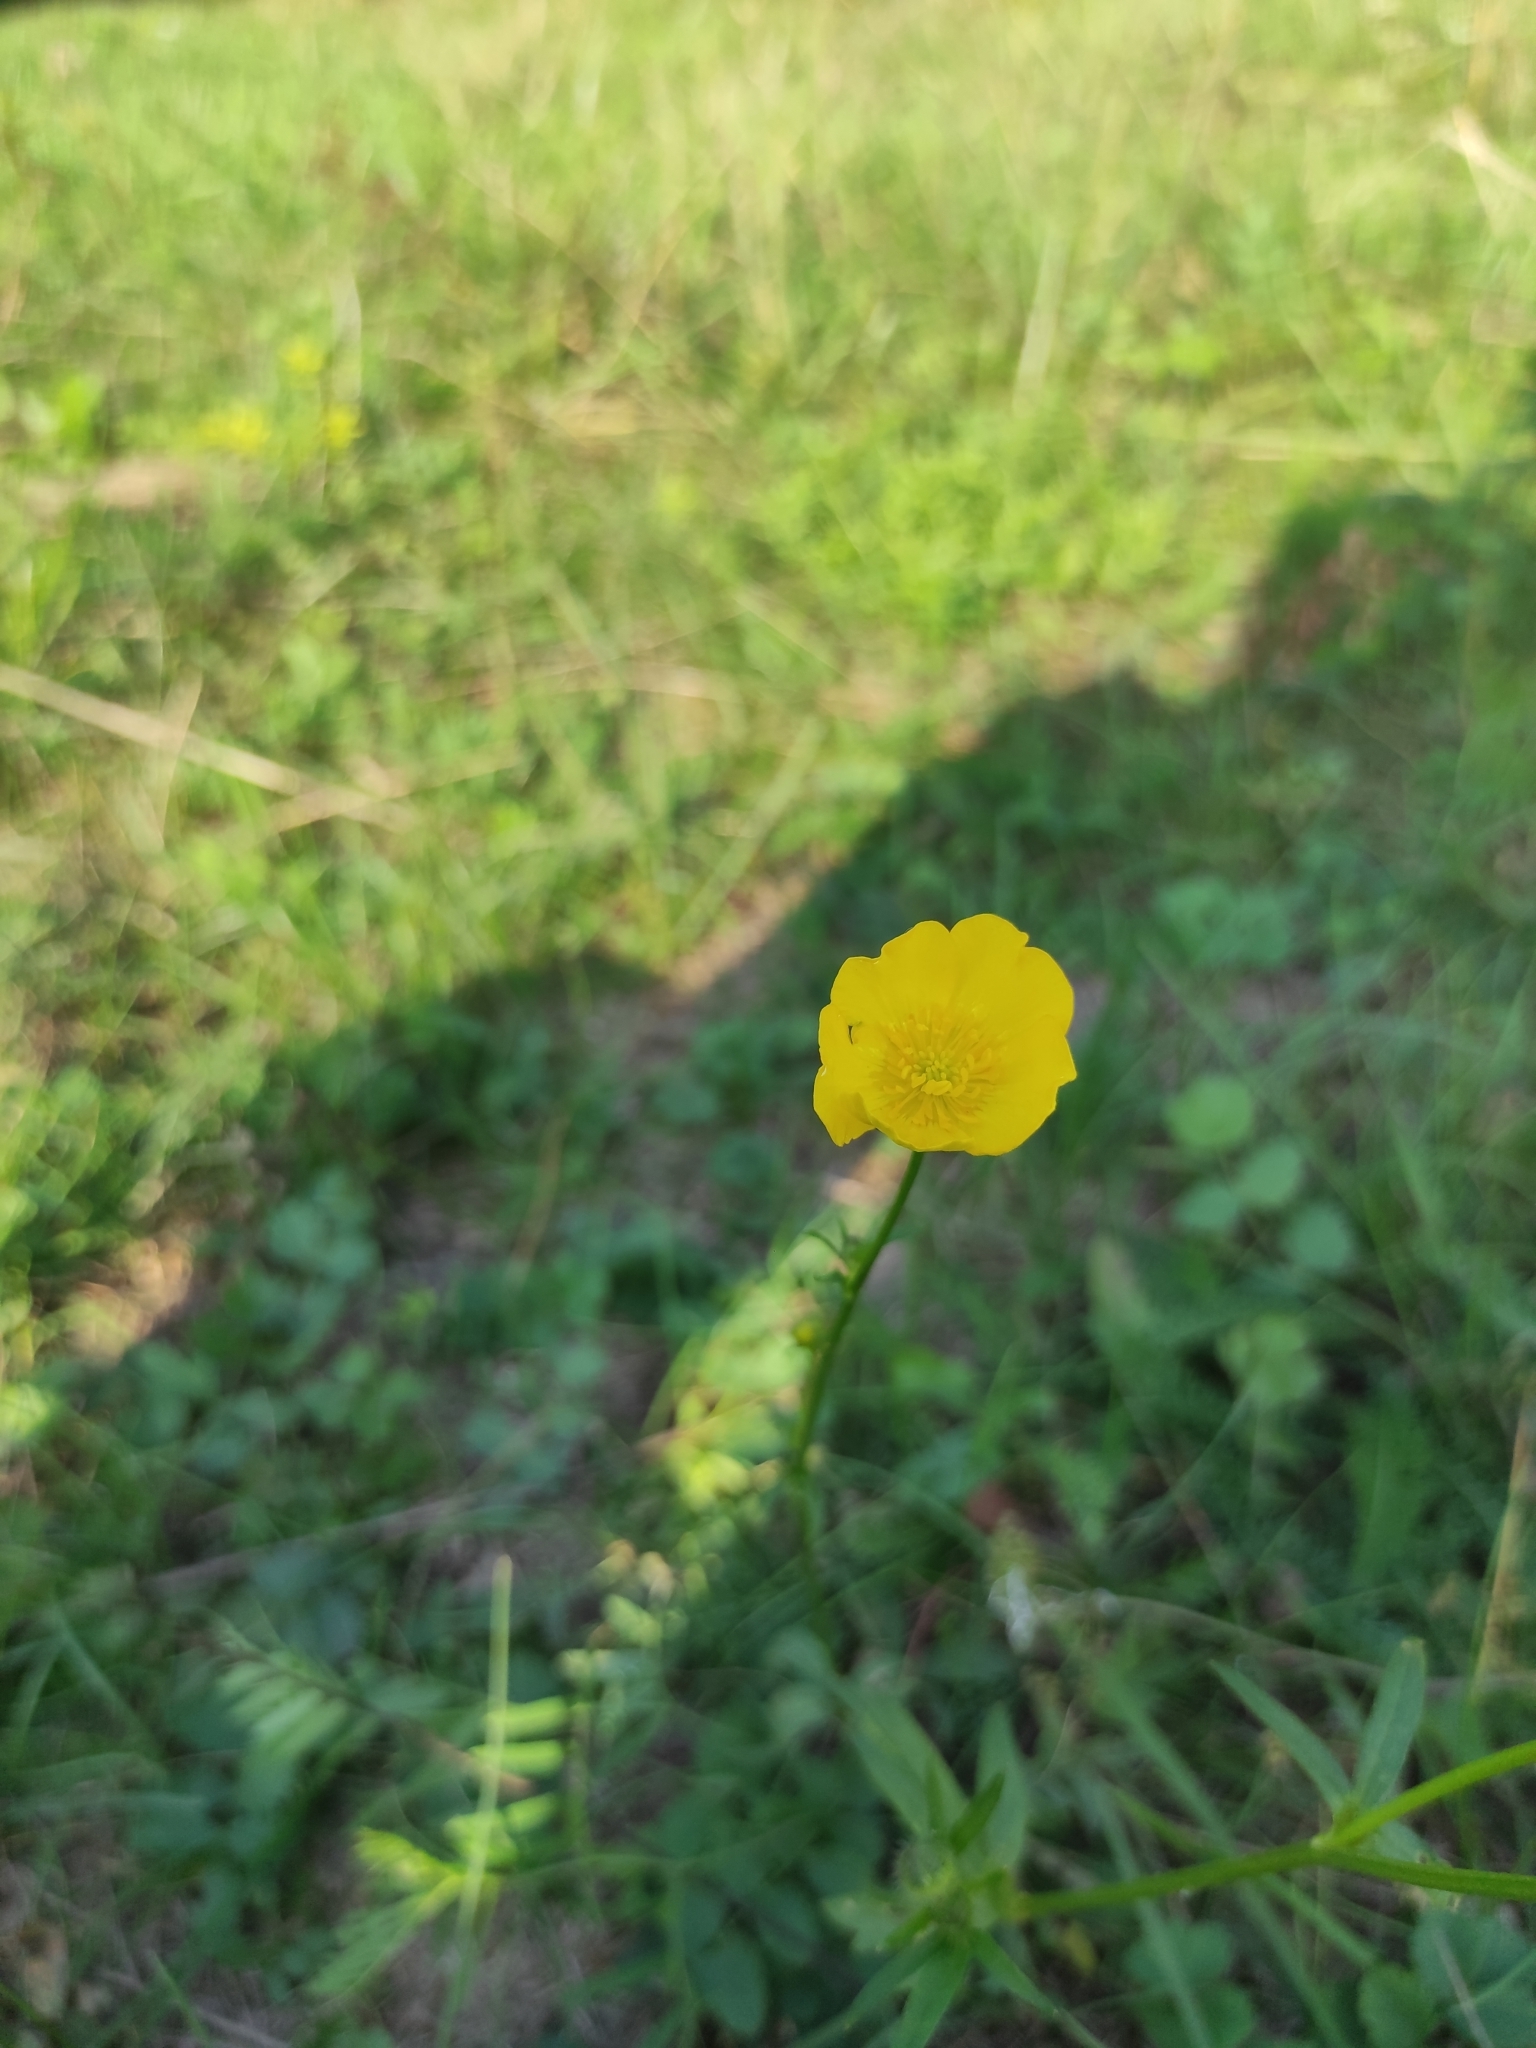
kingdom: Plantae
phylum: Tracheophyta
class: Magnoliopsida
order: Ranunculales
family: Ranunculaceae
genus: Ranunculus
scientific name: Ranunculus polyanthemos
